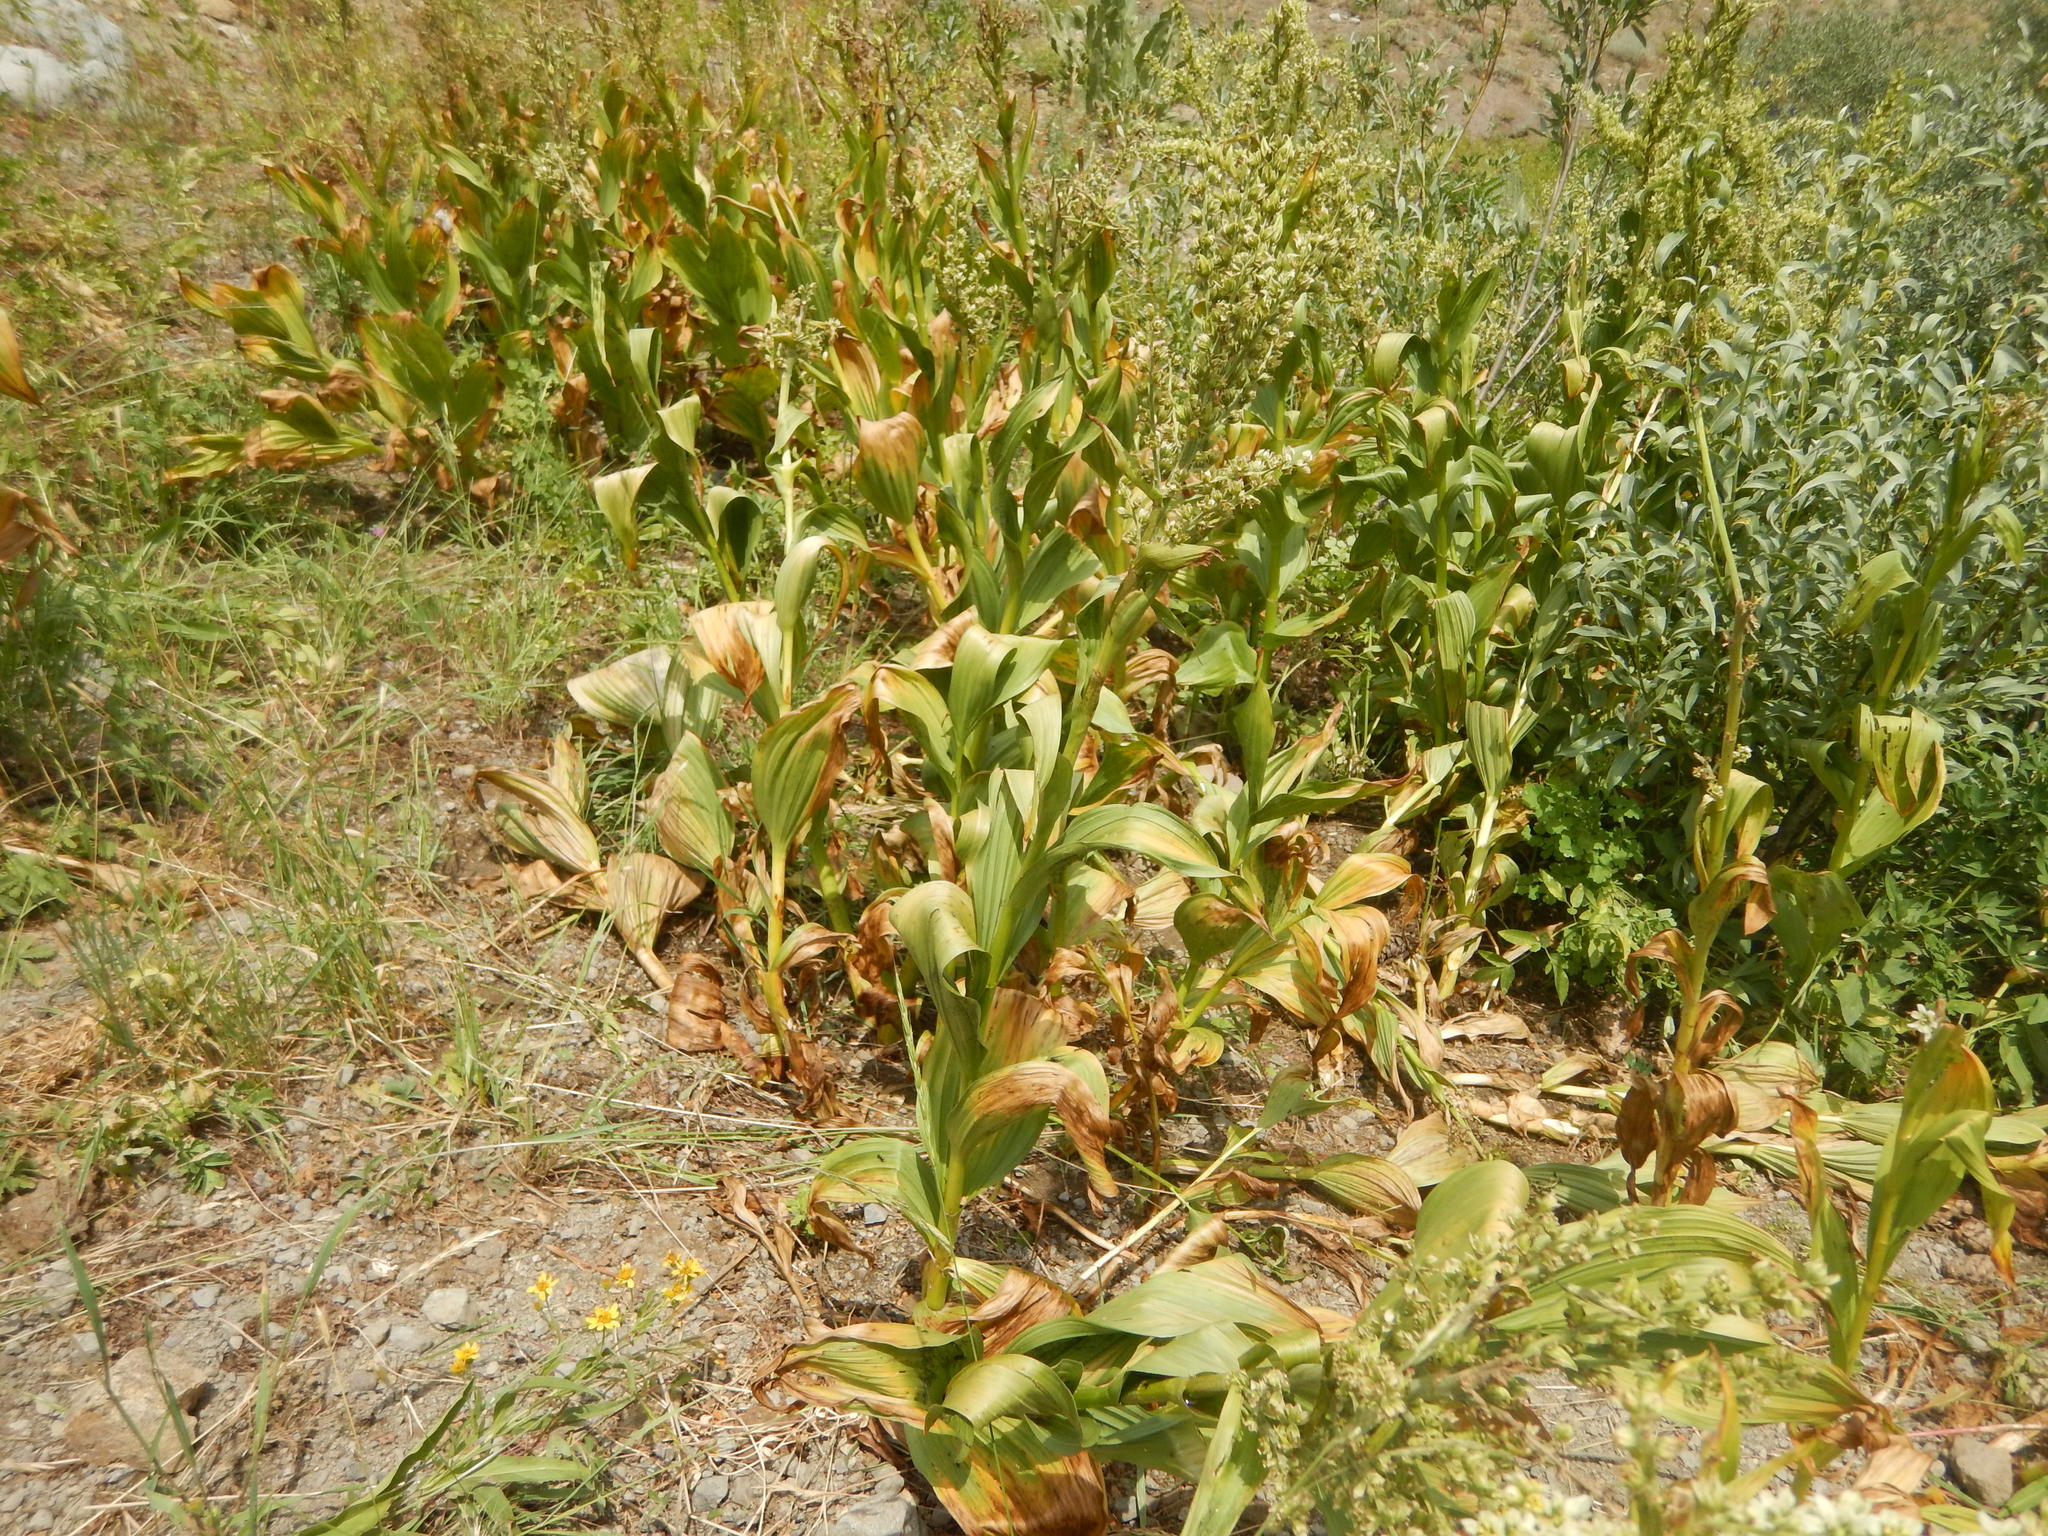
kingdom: Plantae
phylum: Tracheophyta
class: Liliopsida
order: Liliales
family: Melanthiaceae
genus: Veratrum
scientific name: Veratrum californicum
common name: California veratrum
